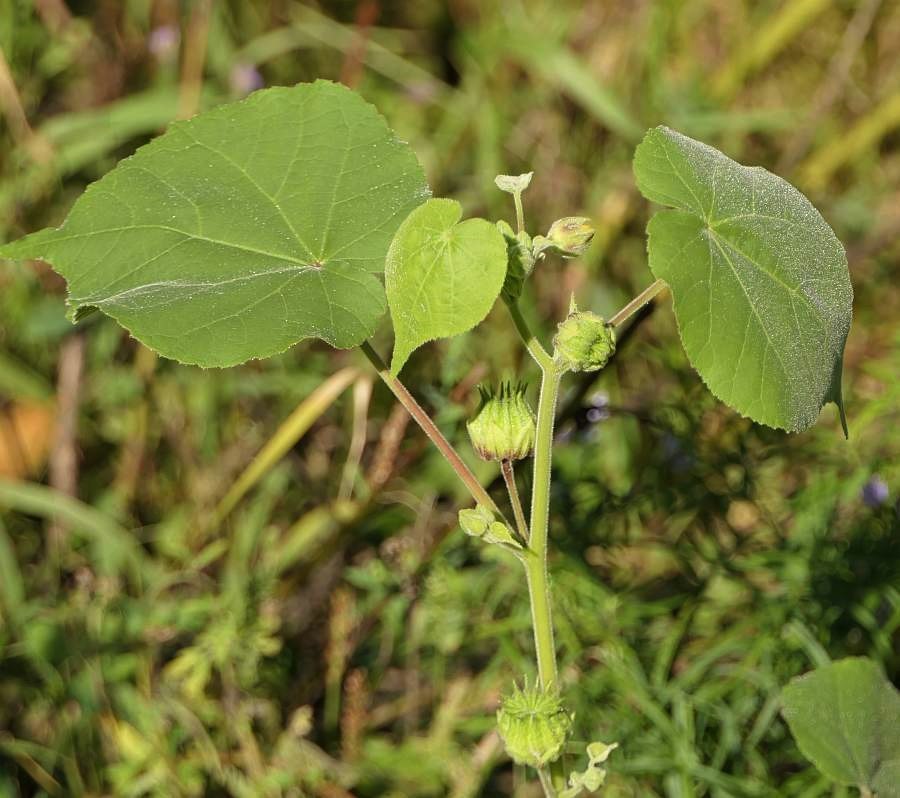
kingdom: Plantae
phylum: Tracheophyta
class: Magnoliopsida
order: Malvales
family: Malvaceae
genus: Abutilon
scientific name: Abutilon theophrasti
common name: Velvetleaf
